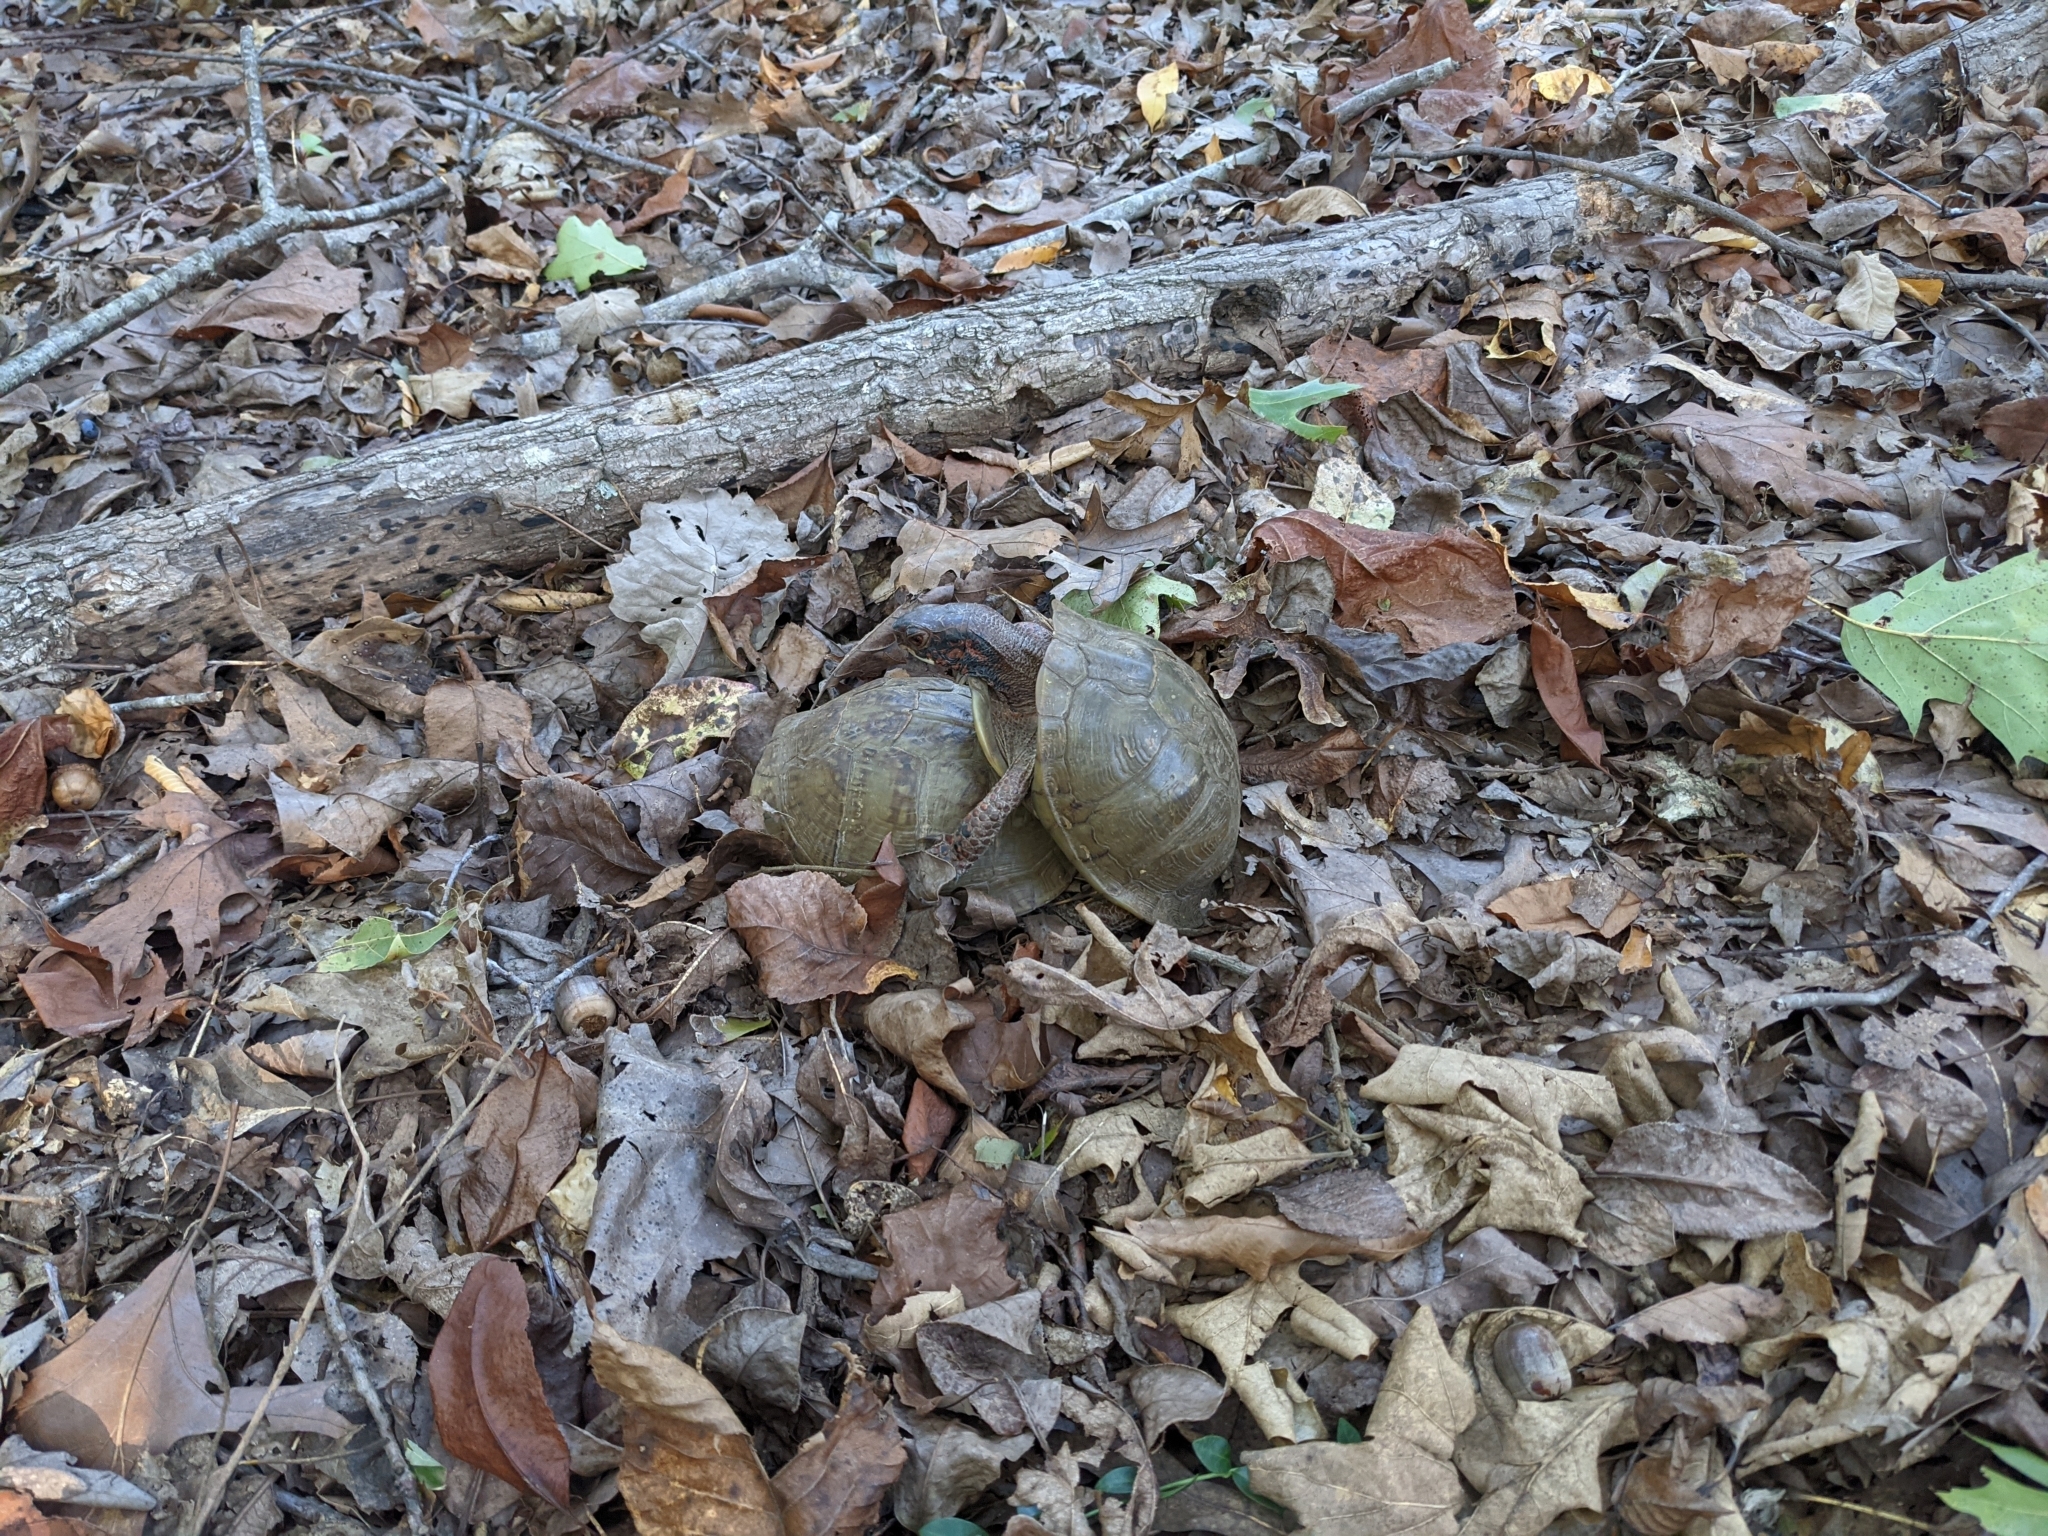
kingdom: Animalia
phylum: Chordata
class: Testudines
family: Emydidae
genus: Terrapene
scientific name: Terrapene carolina
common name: Common box turtle
